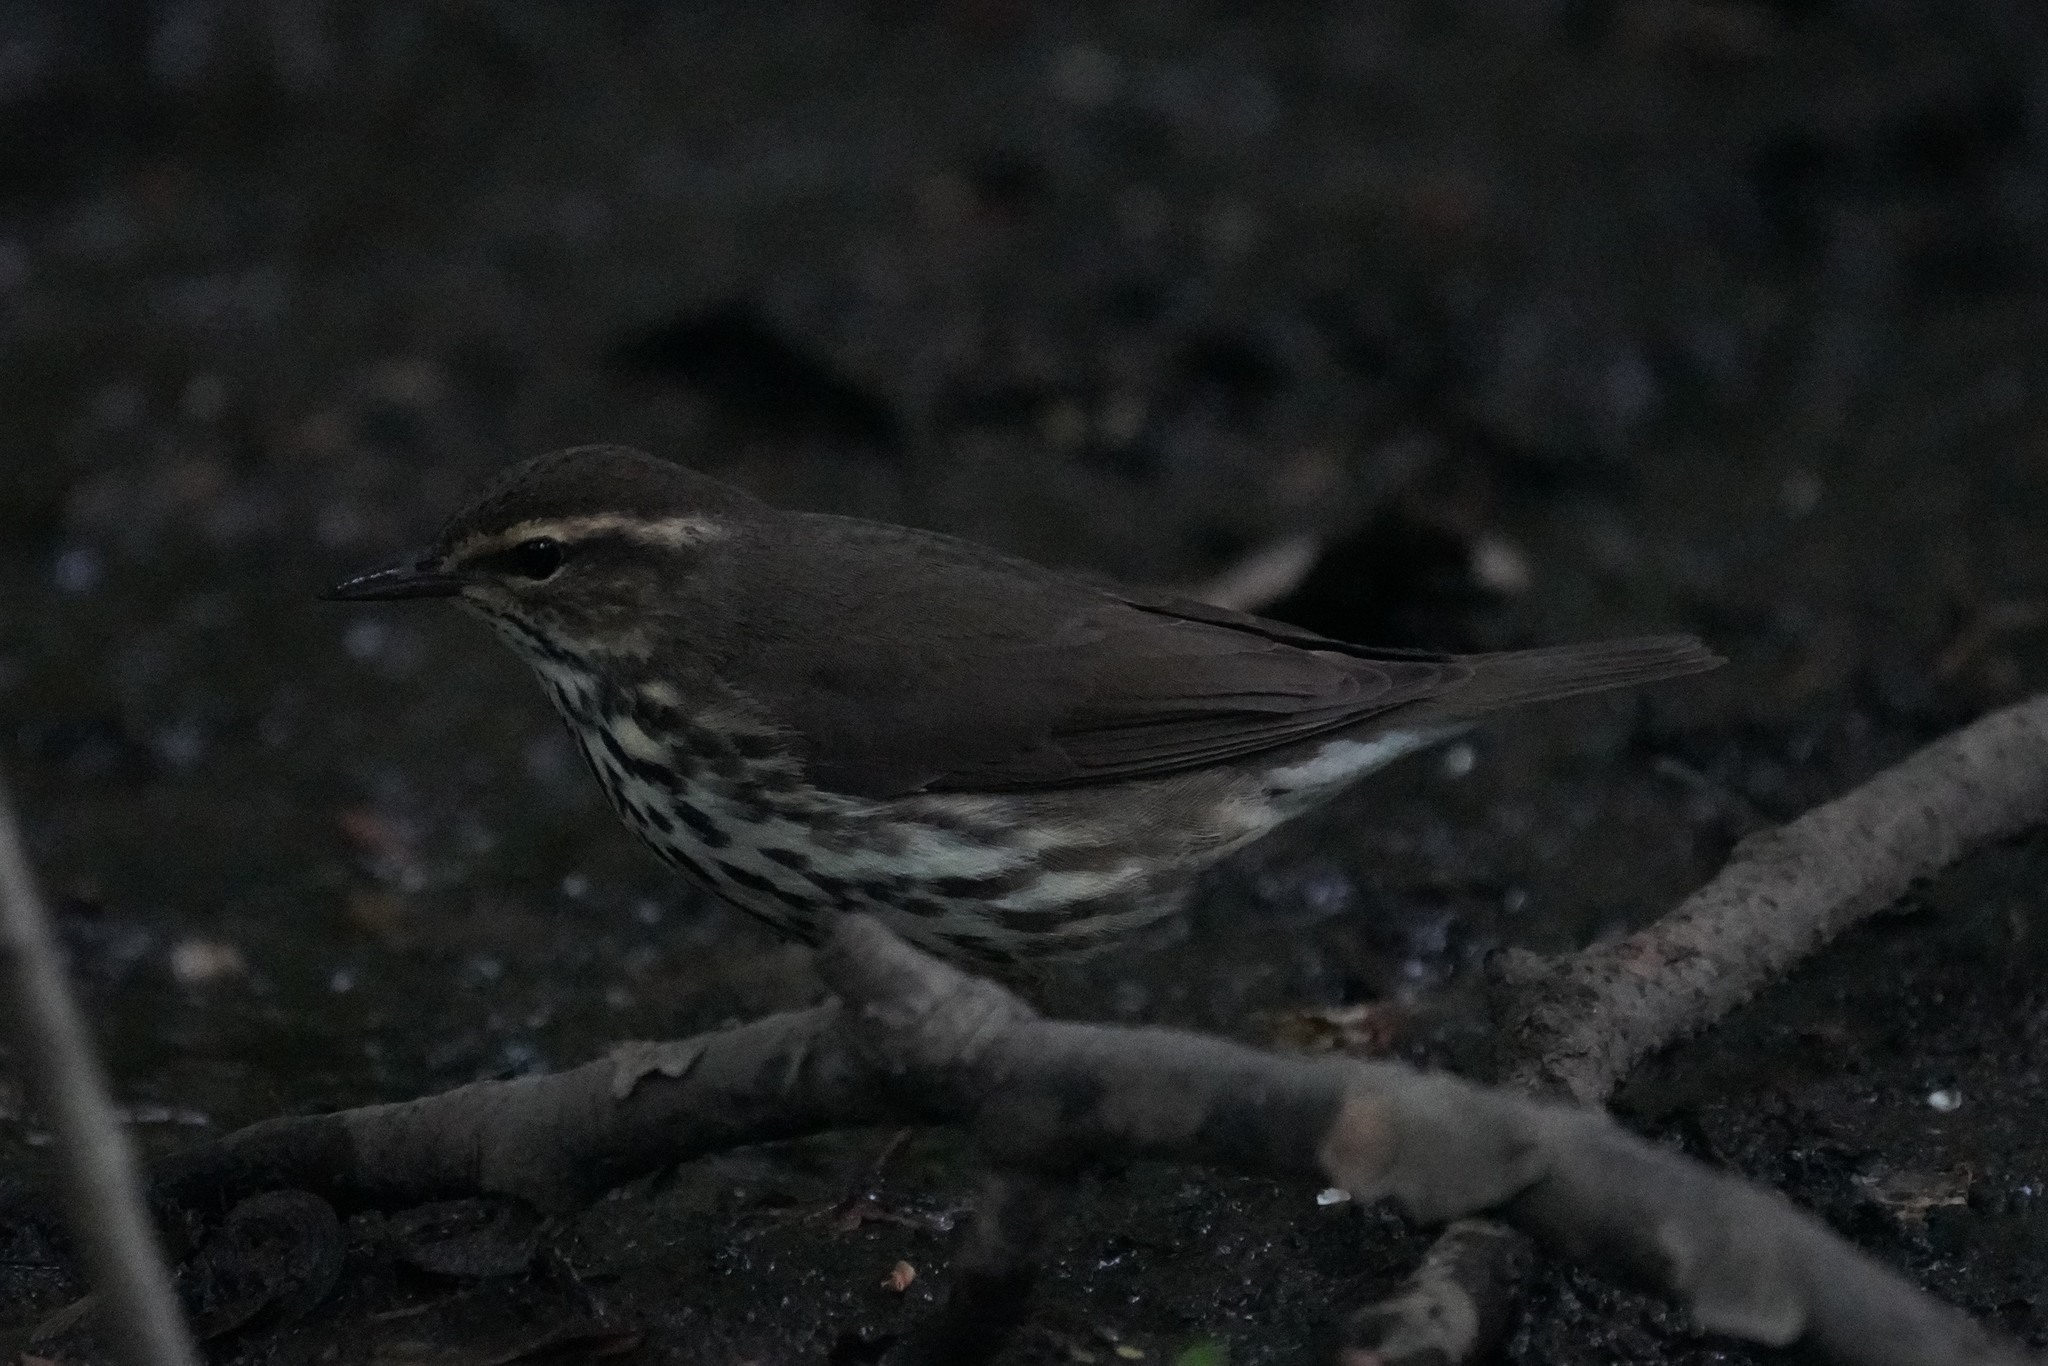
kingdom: Animalia
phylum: Chordata
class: Aves
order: Passeriformes
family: Parulidae
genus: Parkesia
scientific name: Parkesia noveboracensis
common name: Northern waterthrush
